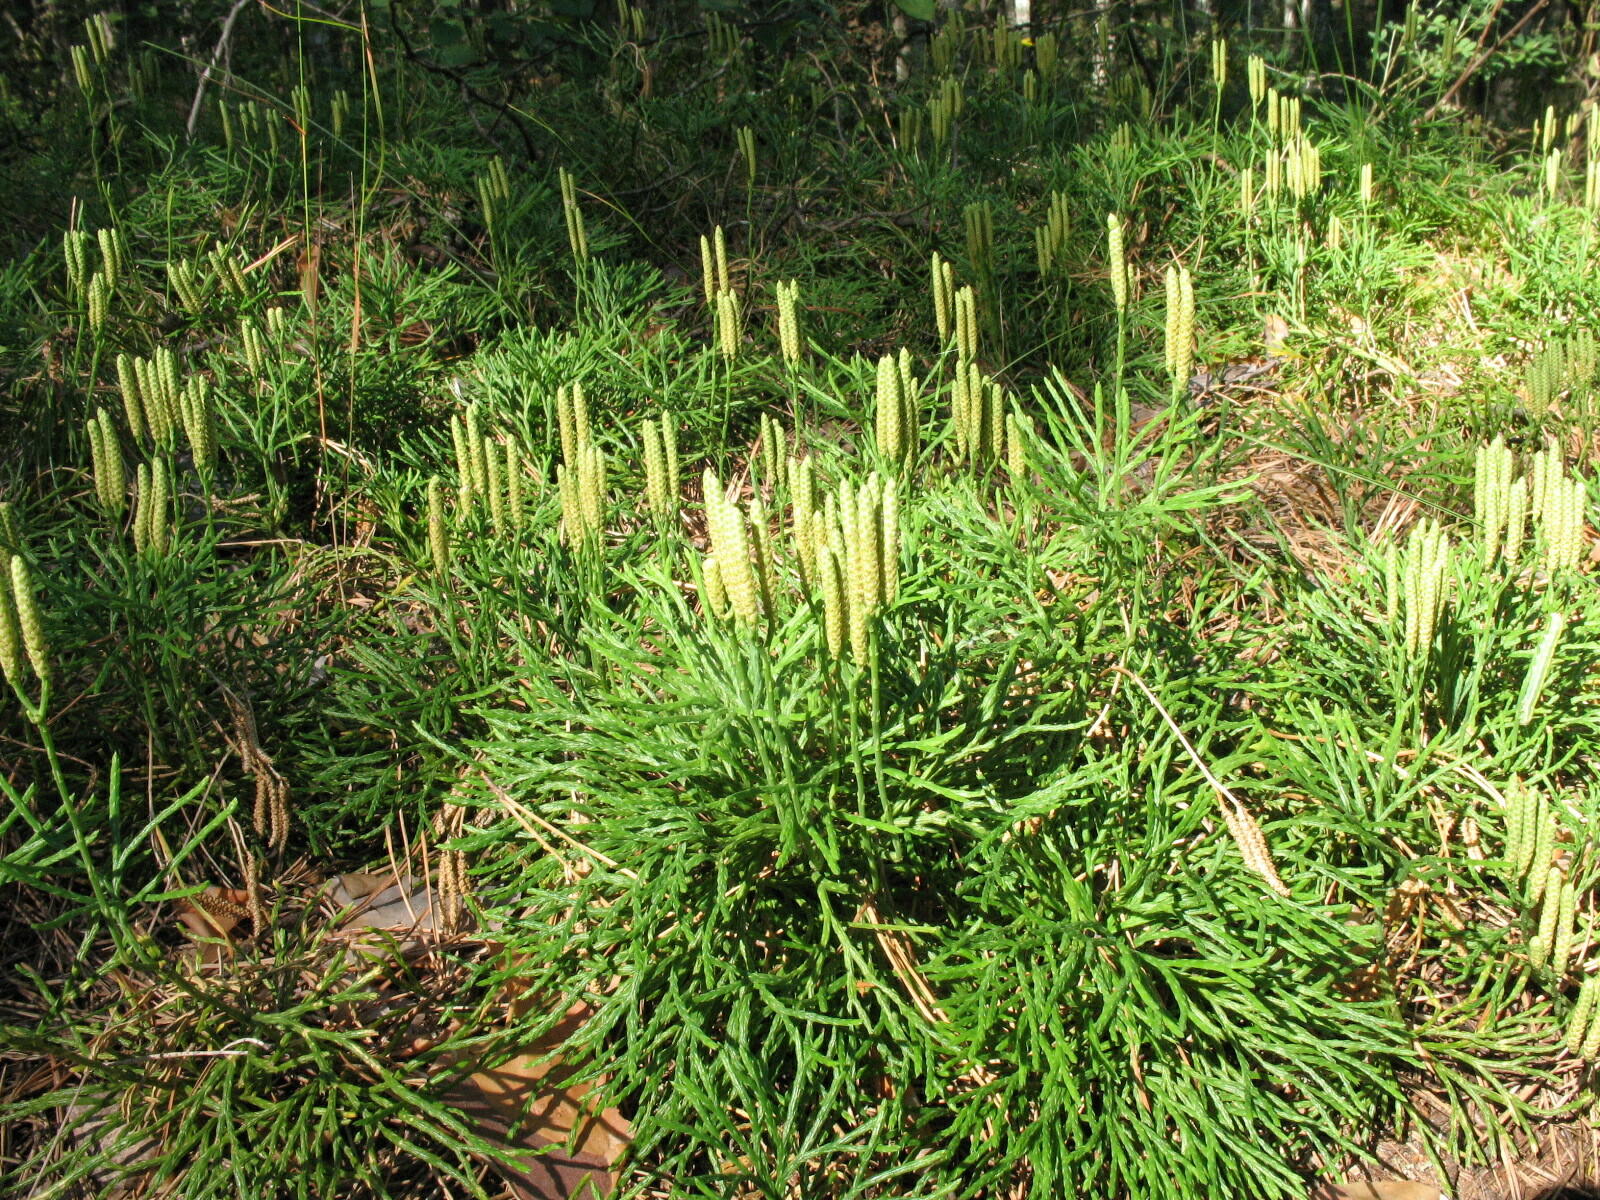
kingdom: Plantae
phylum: Tracheophyta
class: Lycopodiopsida
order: Lycopodiales
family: Lycopodiaceae
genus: Diphasiastrum
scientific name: Diphasiastrum complanatum
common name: Northern running-pine
